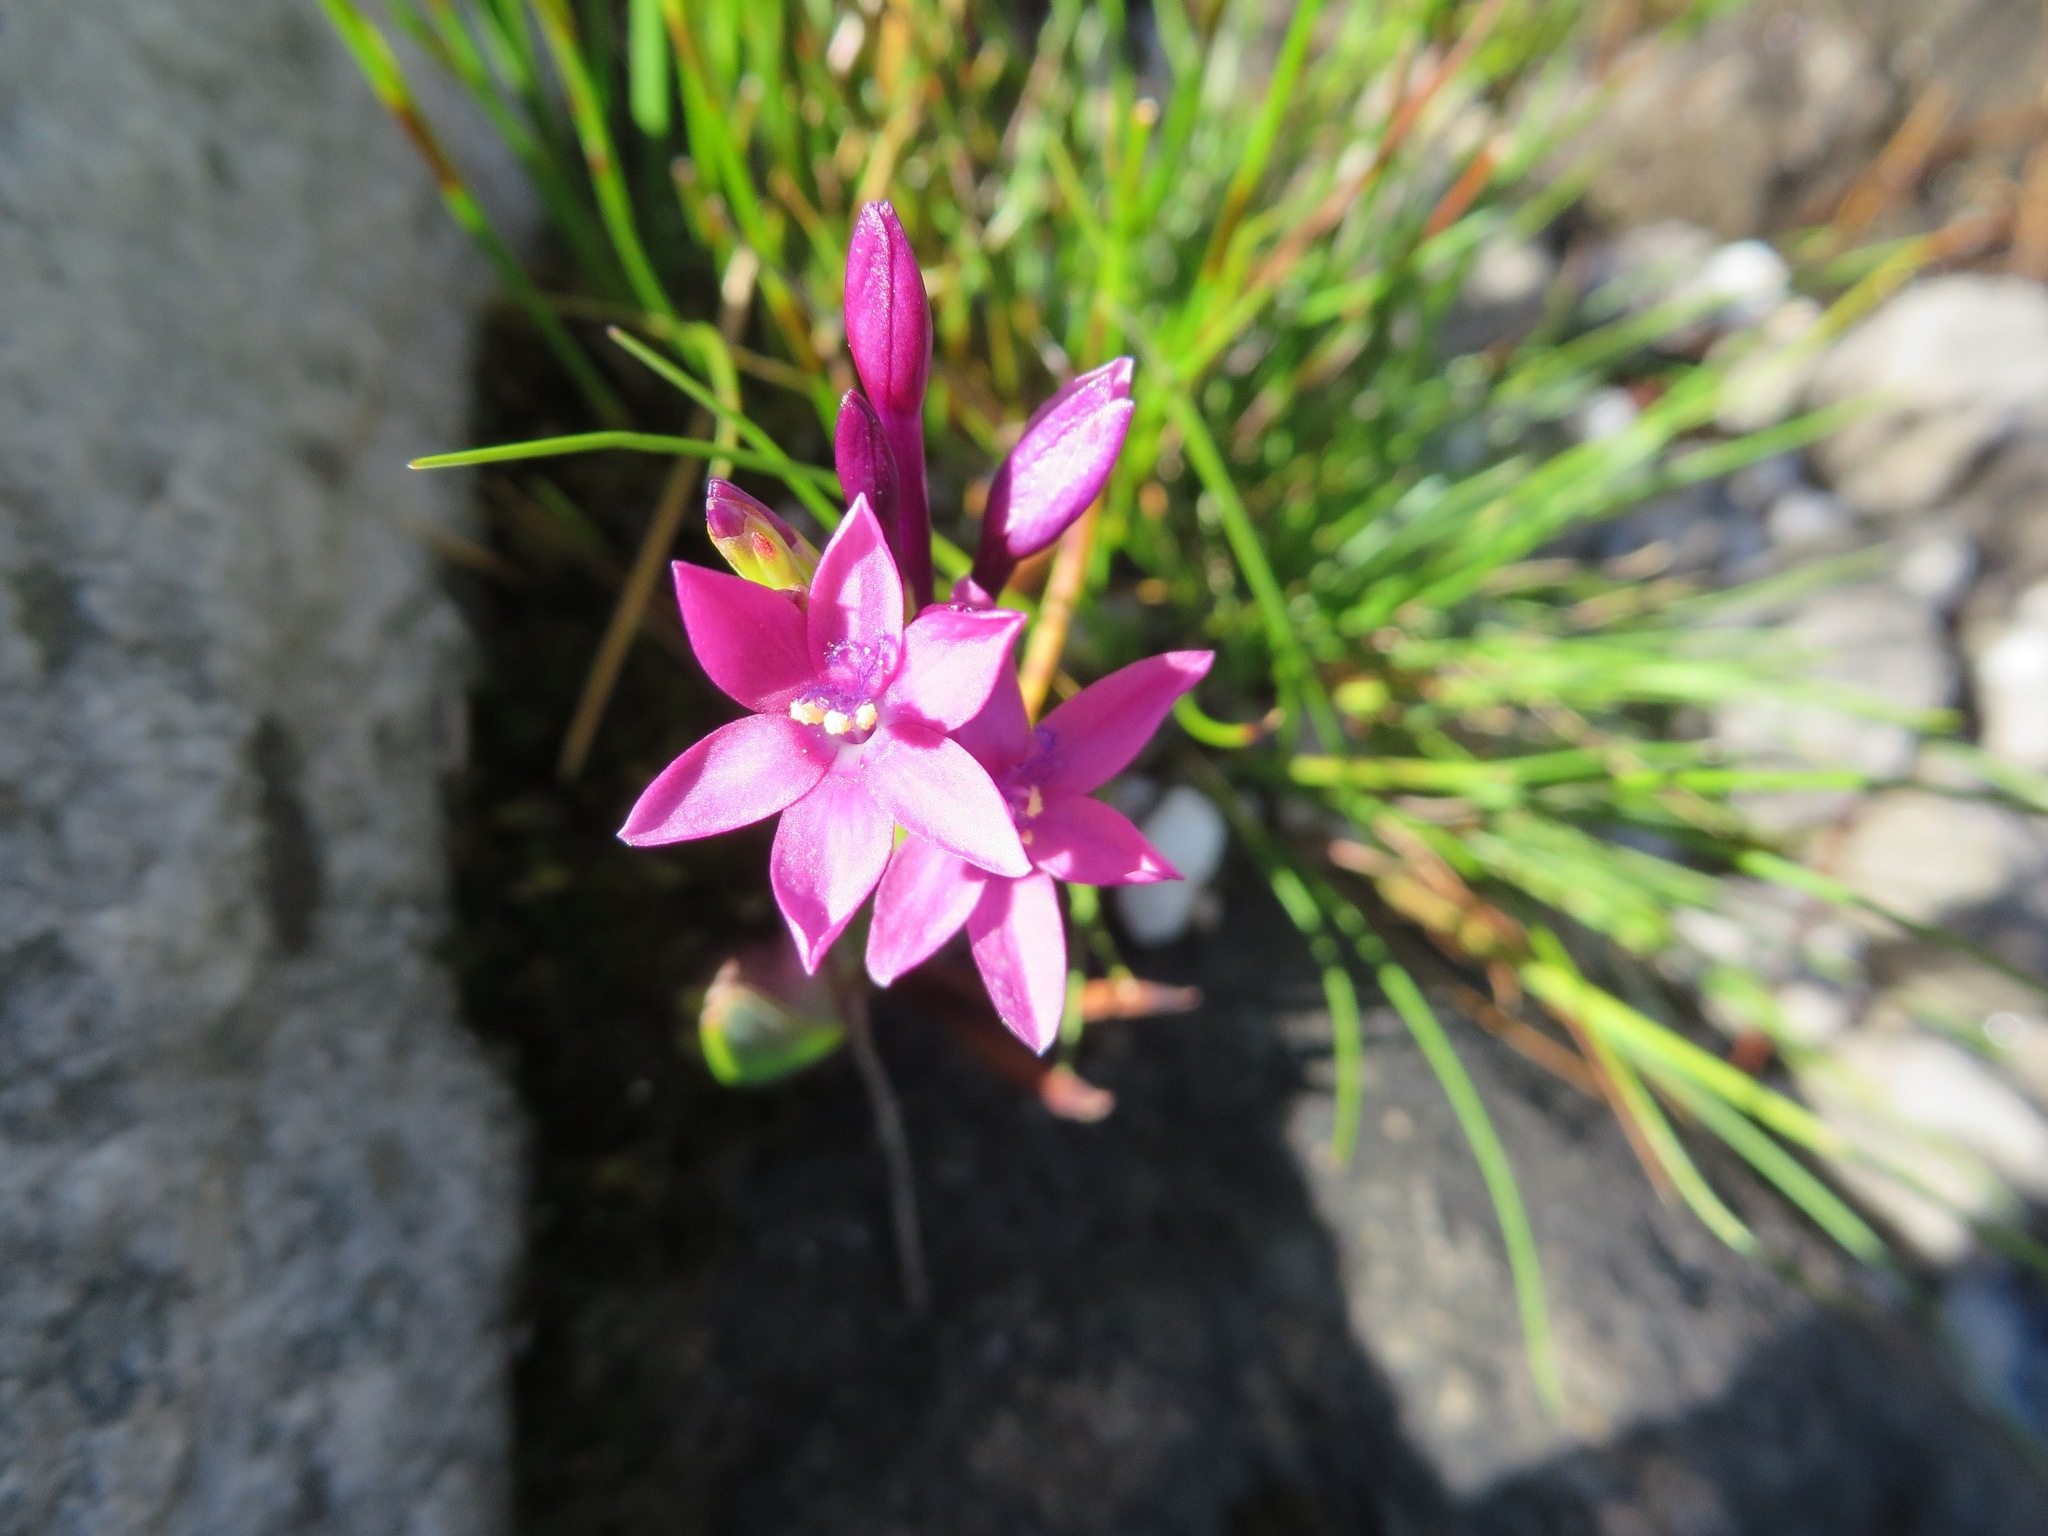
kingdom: Plantae
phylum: Tracheophyta
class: Liliopsida
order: Asparagales
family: Iridaceae
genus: Thereianthus
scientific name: Thereianthus minutus
